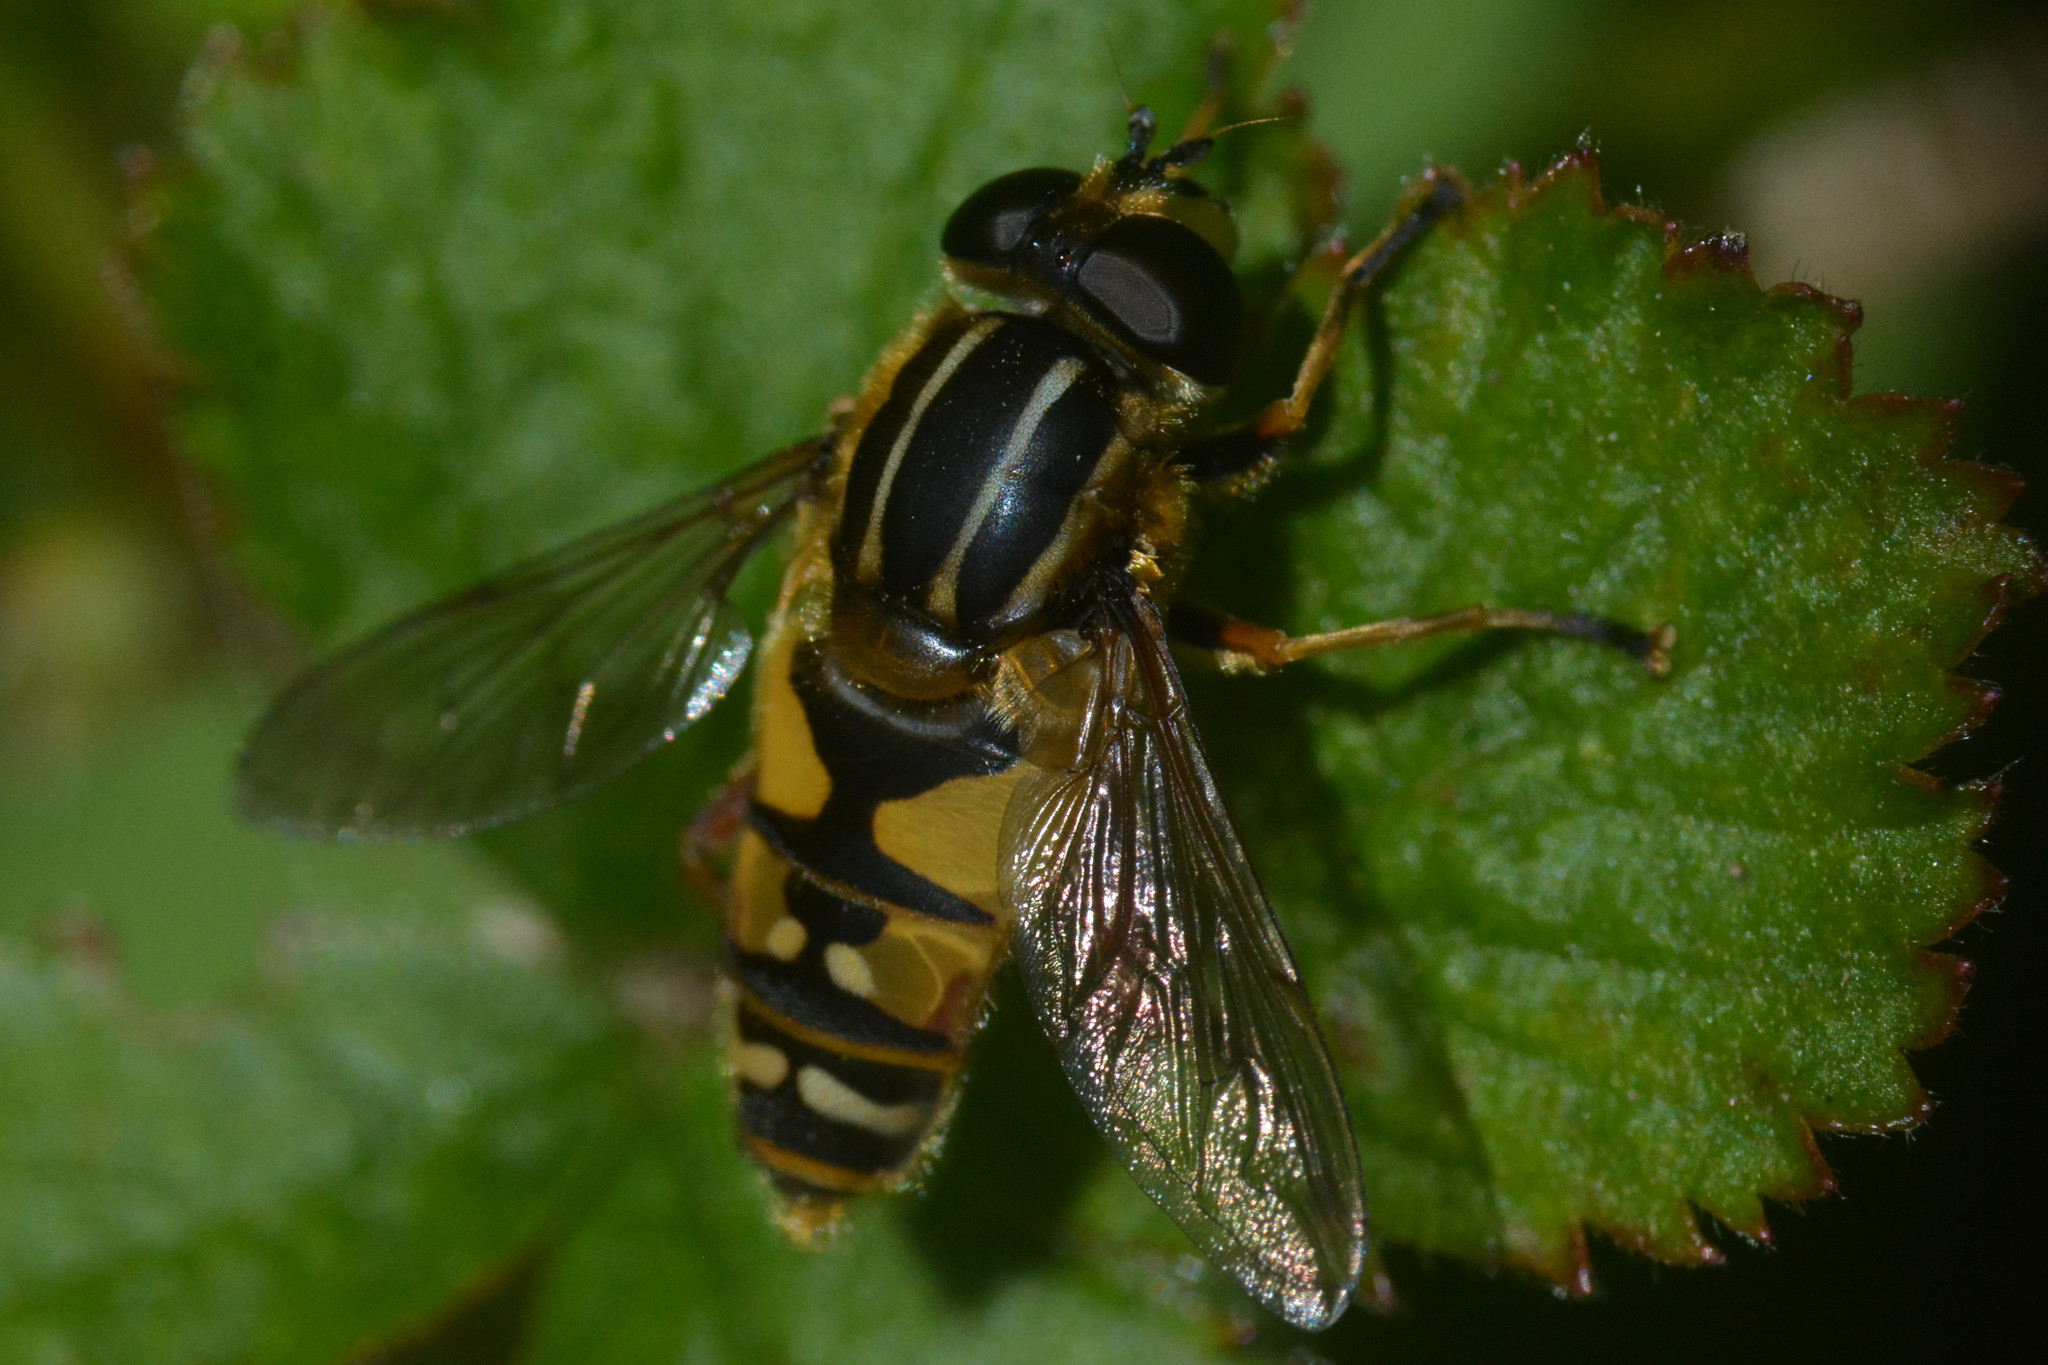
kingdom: Animalia
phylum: Arthropoda
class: Insecta
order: Diptera
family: Syrphidae
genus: Helophilus
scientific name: Helophilus pendulus
